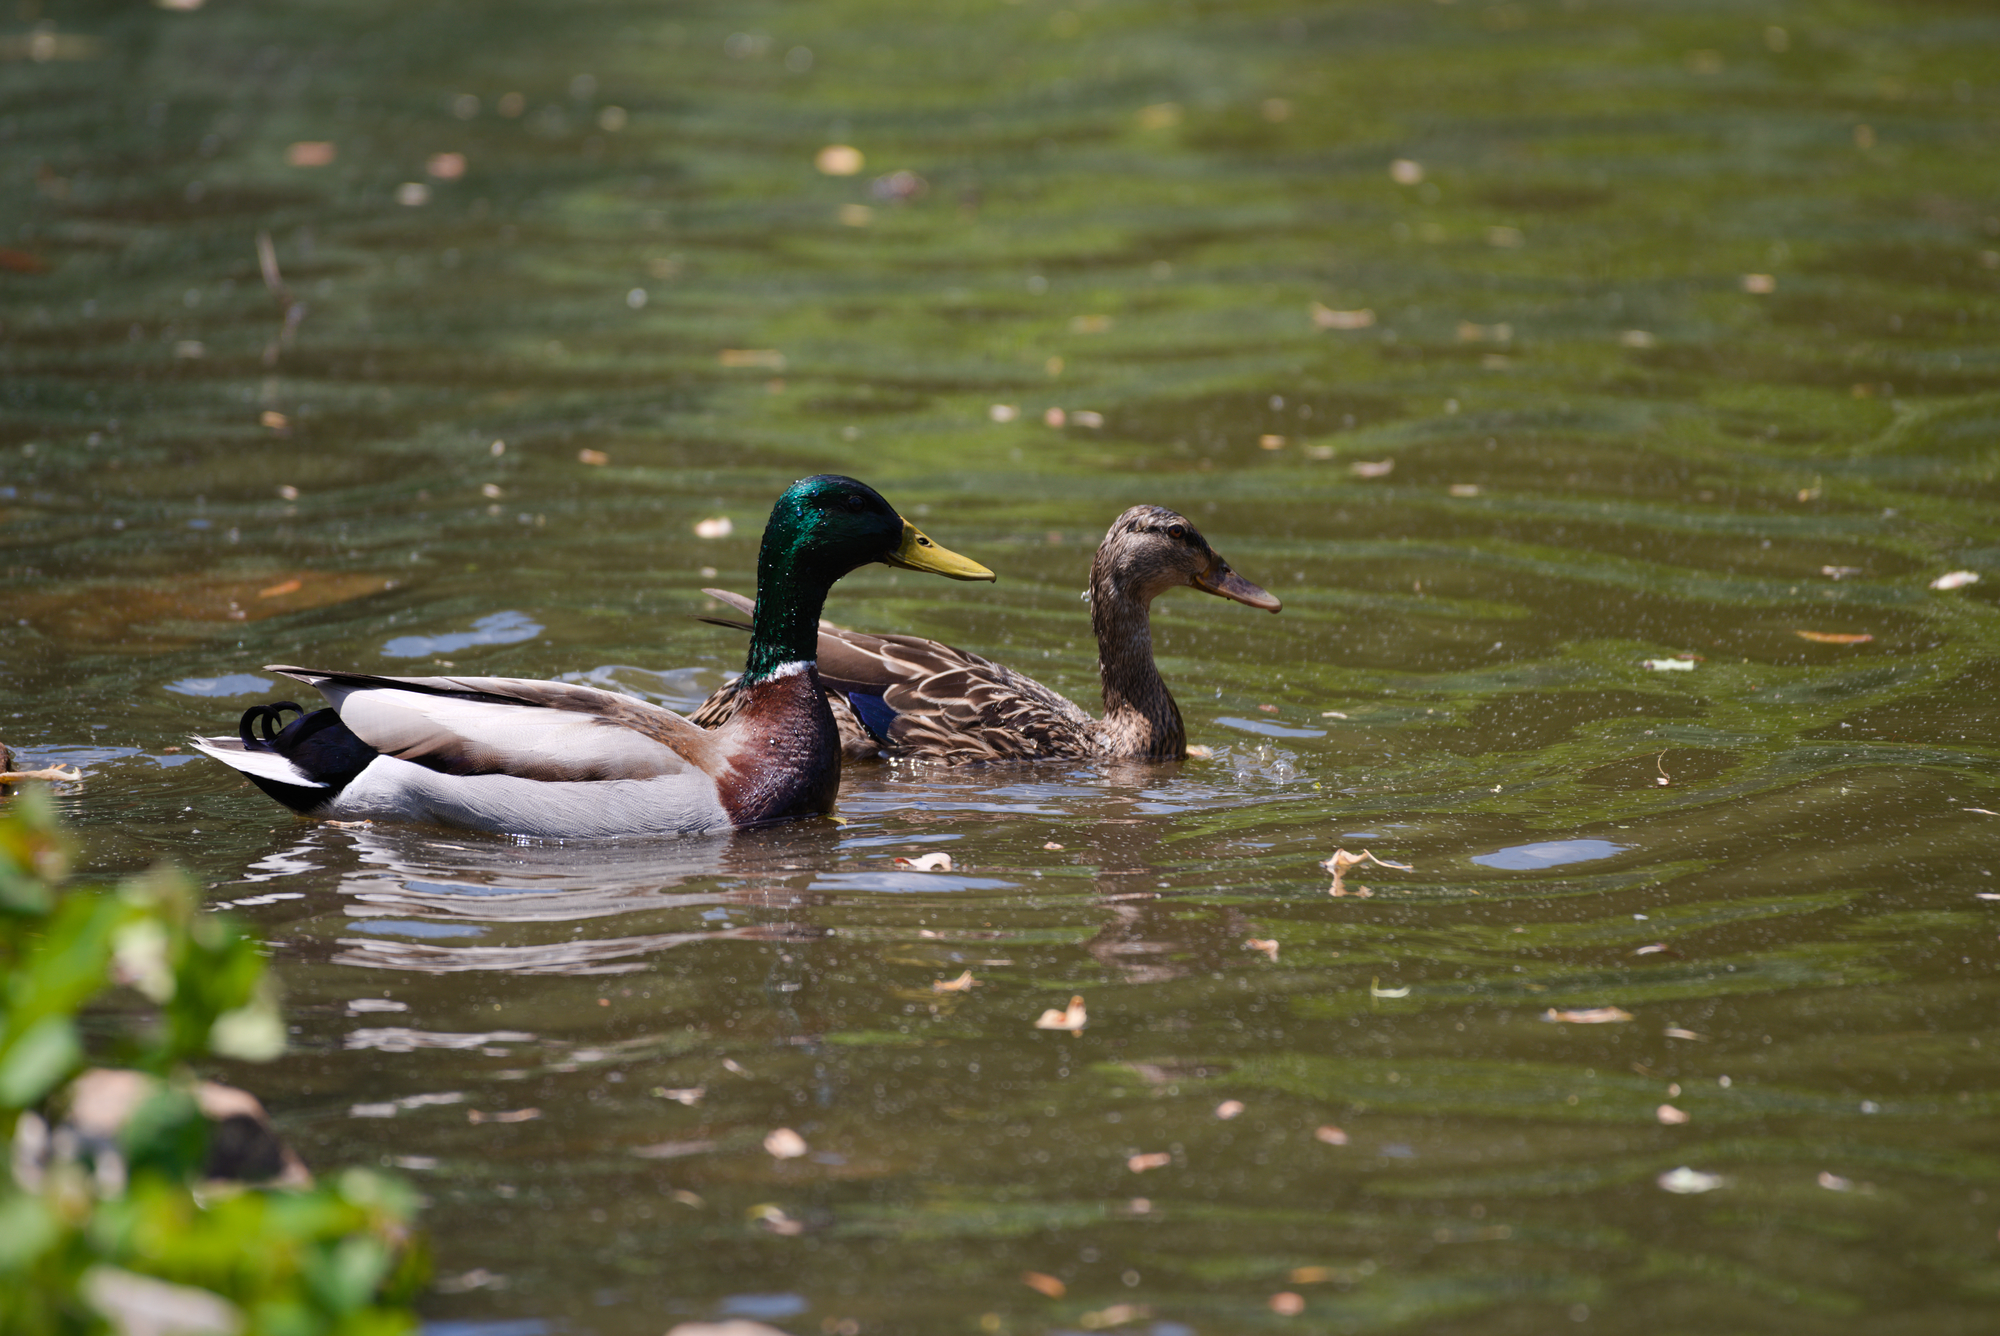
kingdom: Animalia
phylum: Chordata
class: Aves
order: Anseriformes
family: Anatidae
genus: Anas
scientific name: Anas platyrhynchos
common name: Mallard
